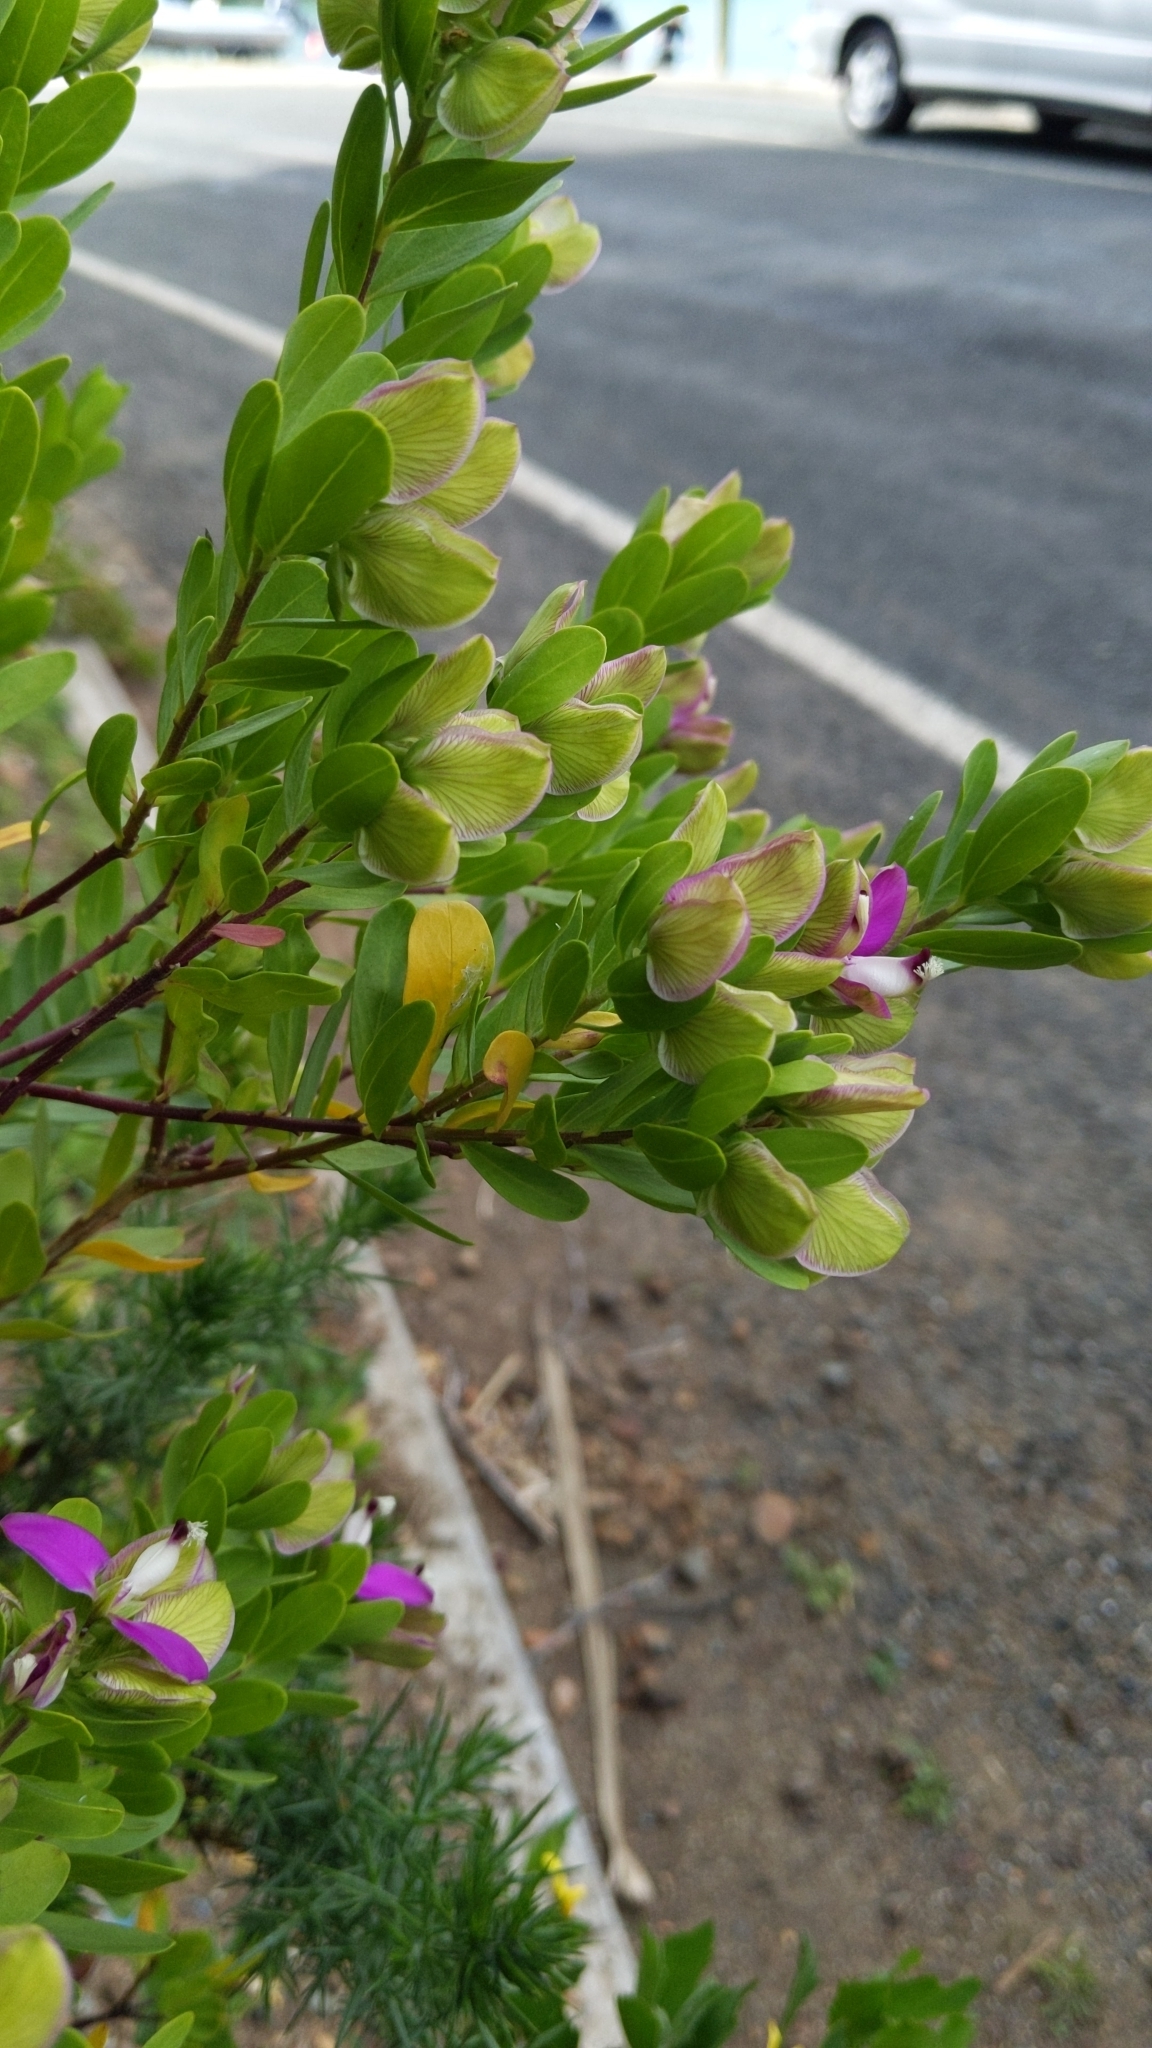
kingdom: Plantae
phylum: Tracheophyta
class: Magnoliopsida
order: Fabales
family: Polygalaceae
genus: Polygala
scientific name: Polygala myrtifolia
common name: Myrtle-leaf milkwort
